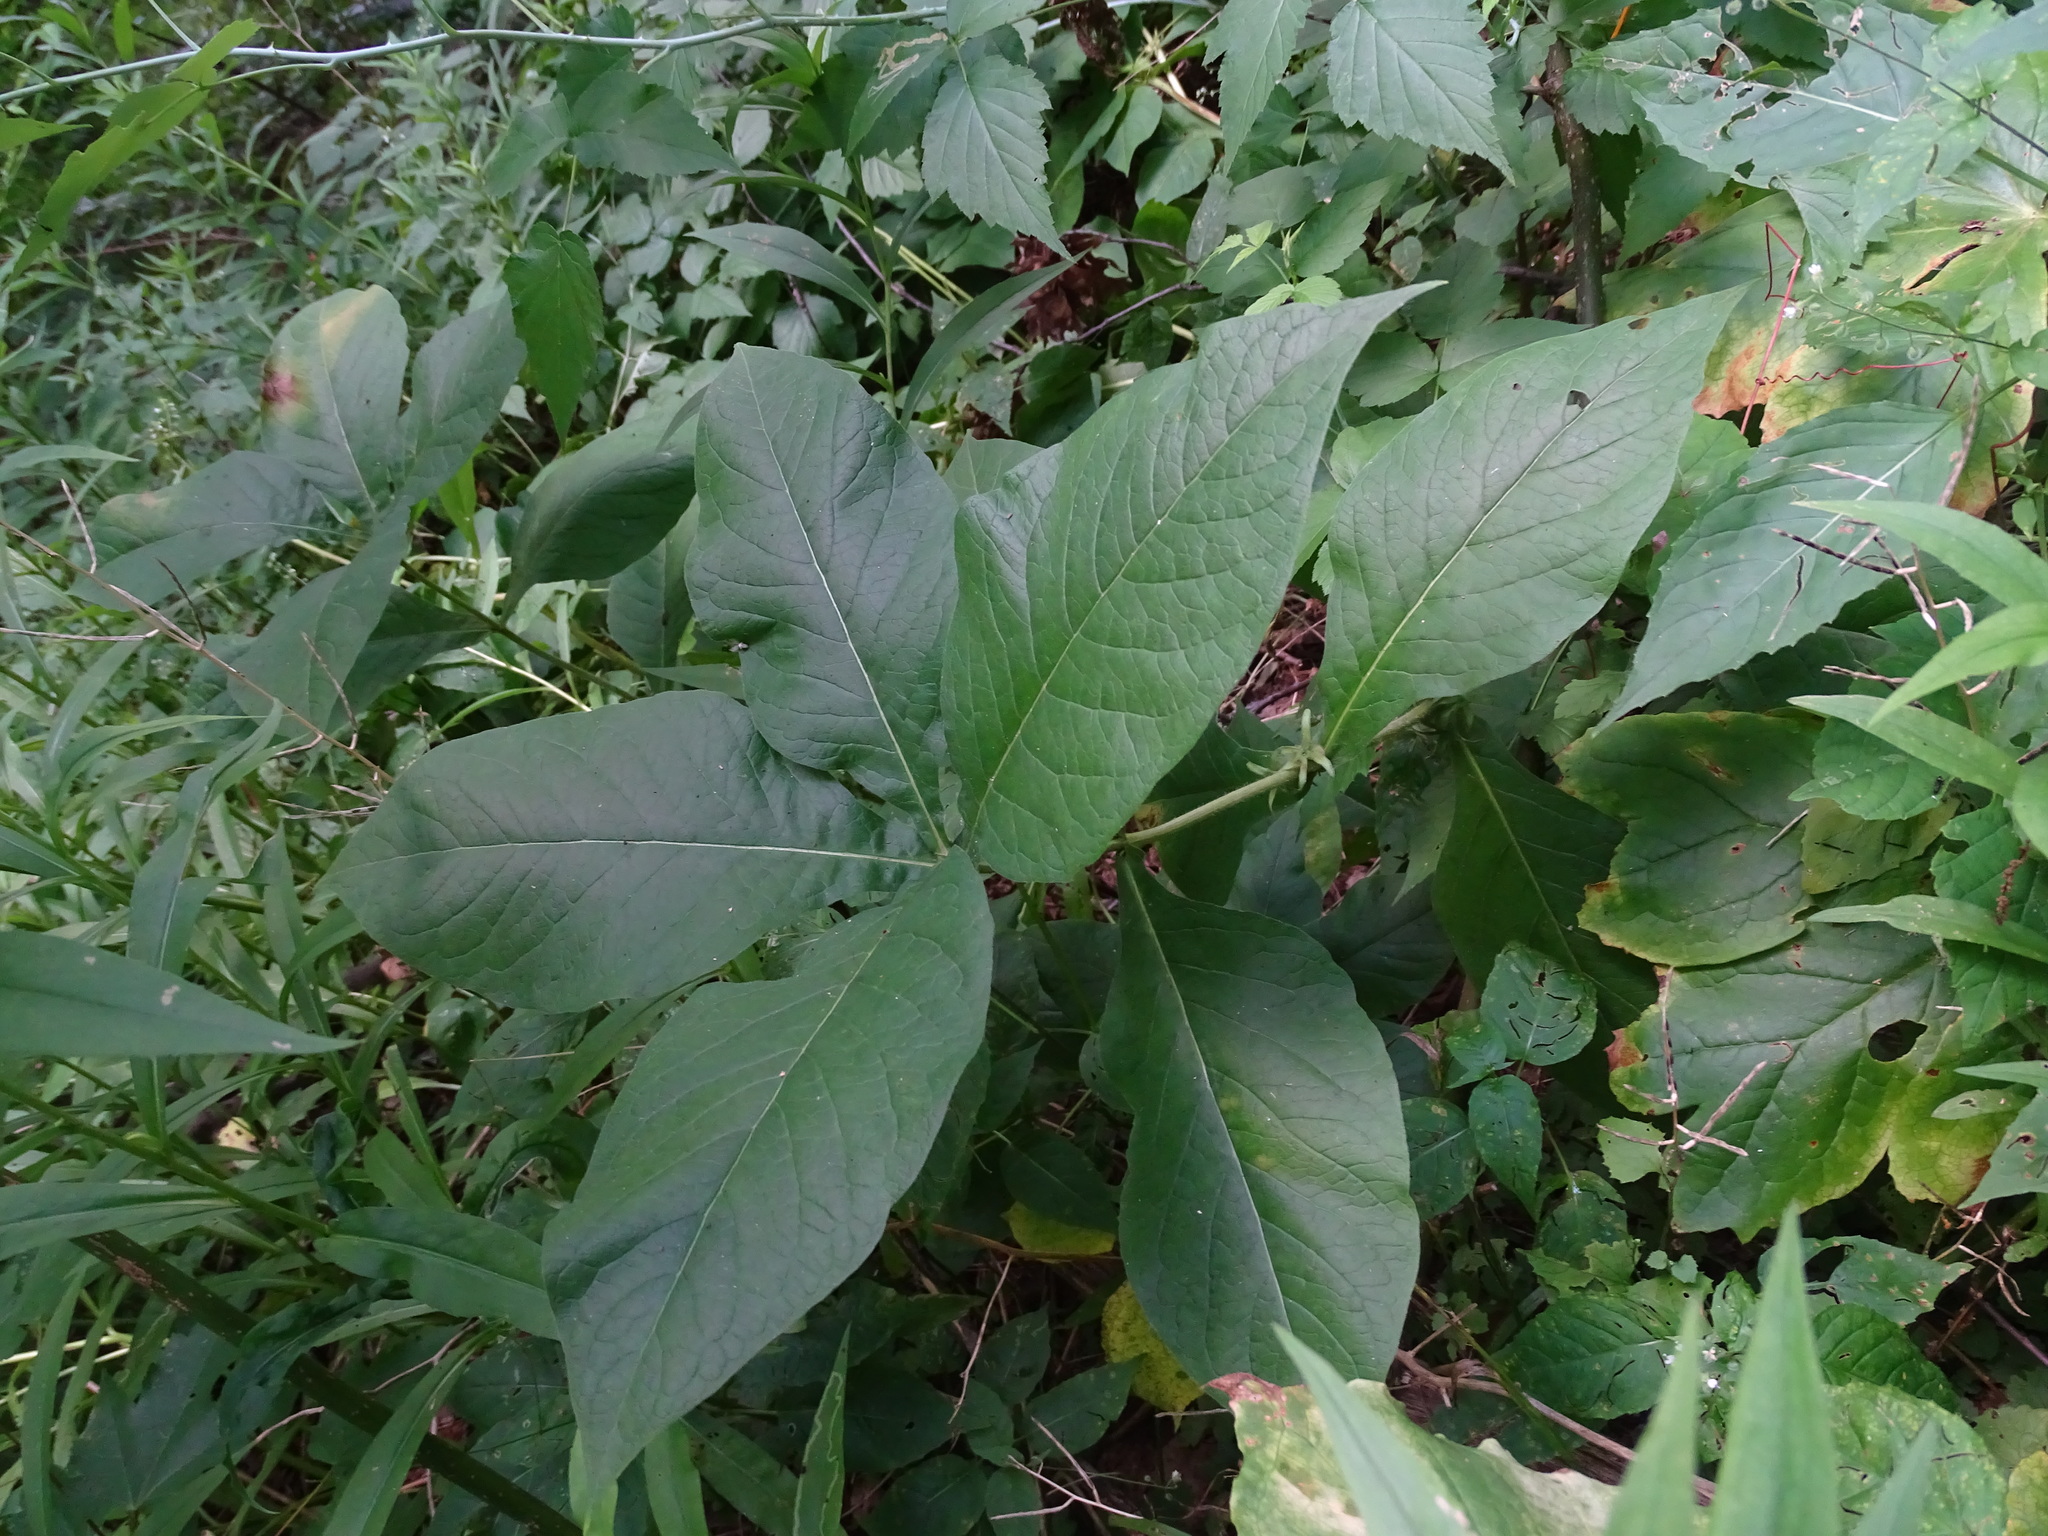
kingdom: Plantae
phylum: Tracheophyta
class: Magnoliopsida
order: Dipsacales
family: Caprifoliaceae
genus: Triosteum
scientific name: Triosteum aurantiacum
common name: Coffee tinker's-weed
